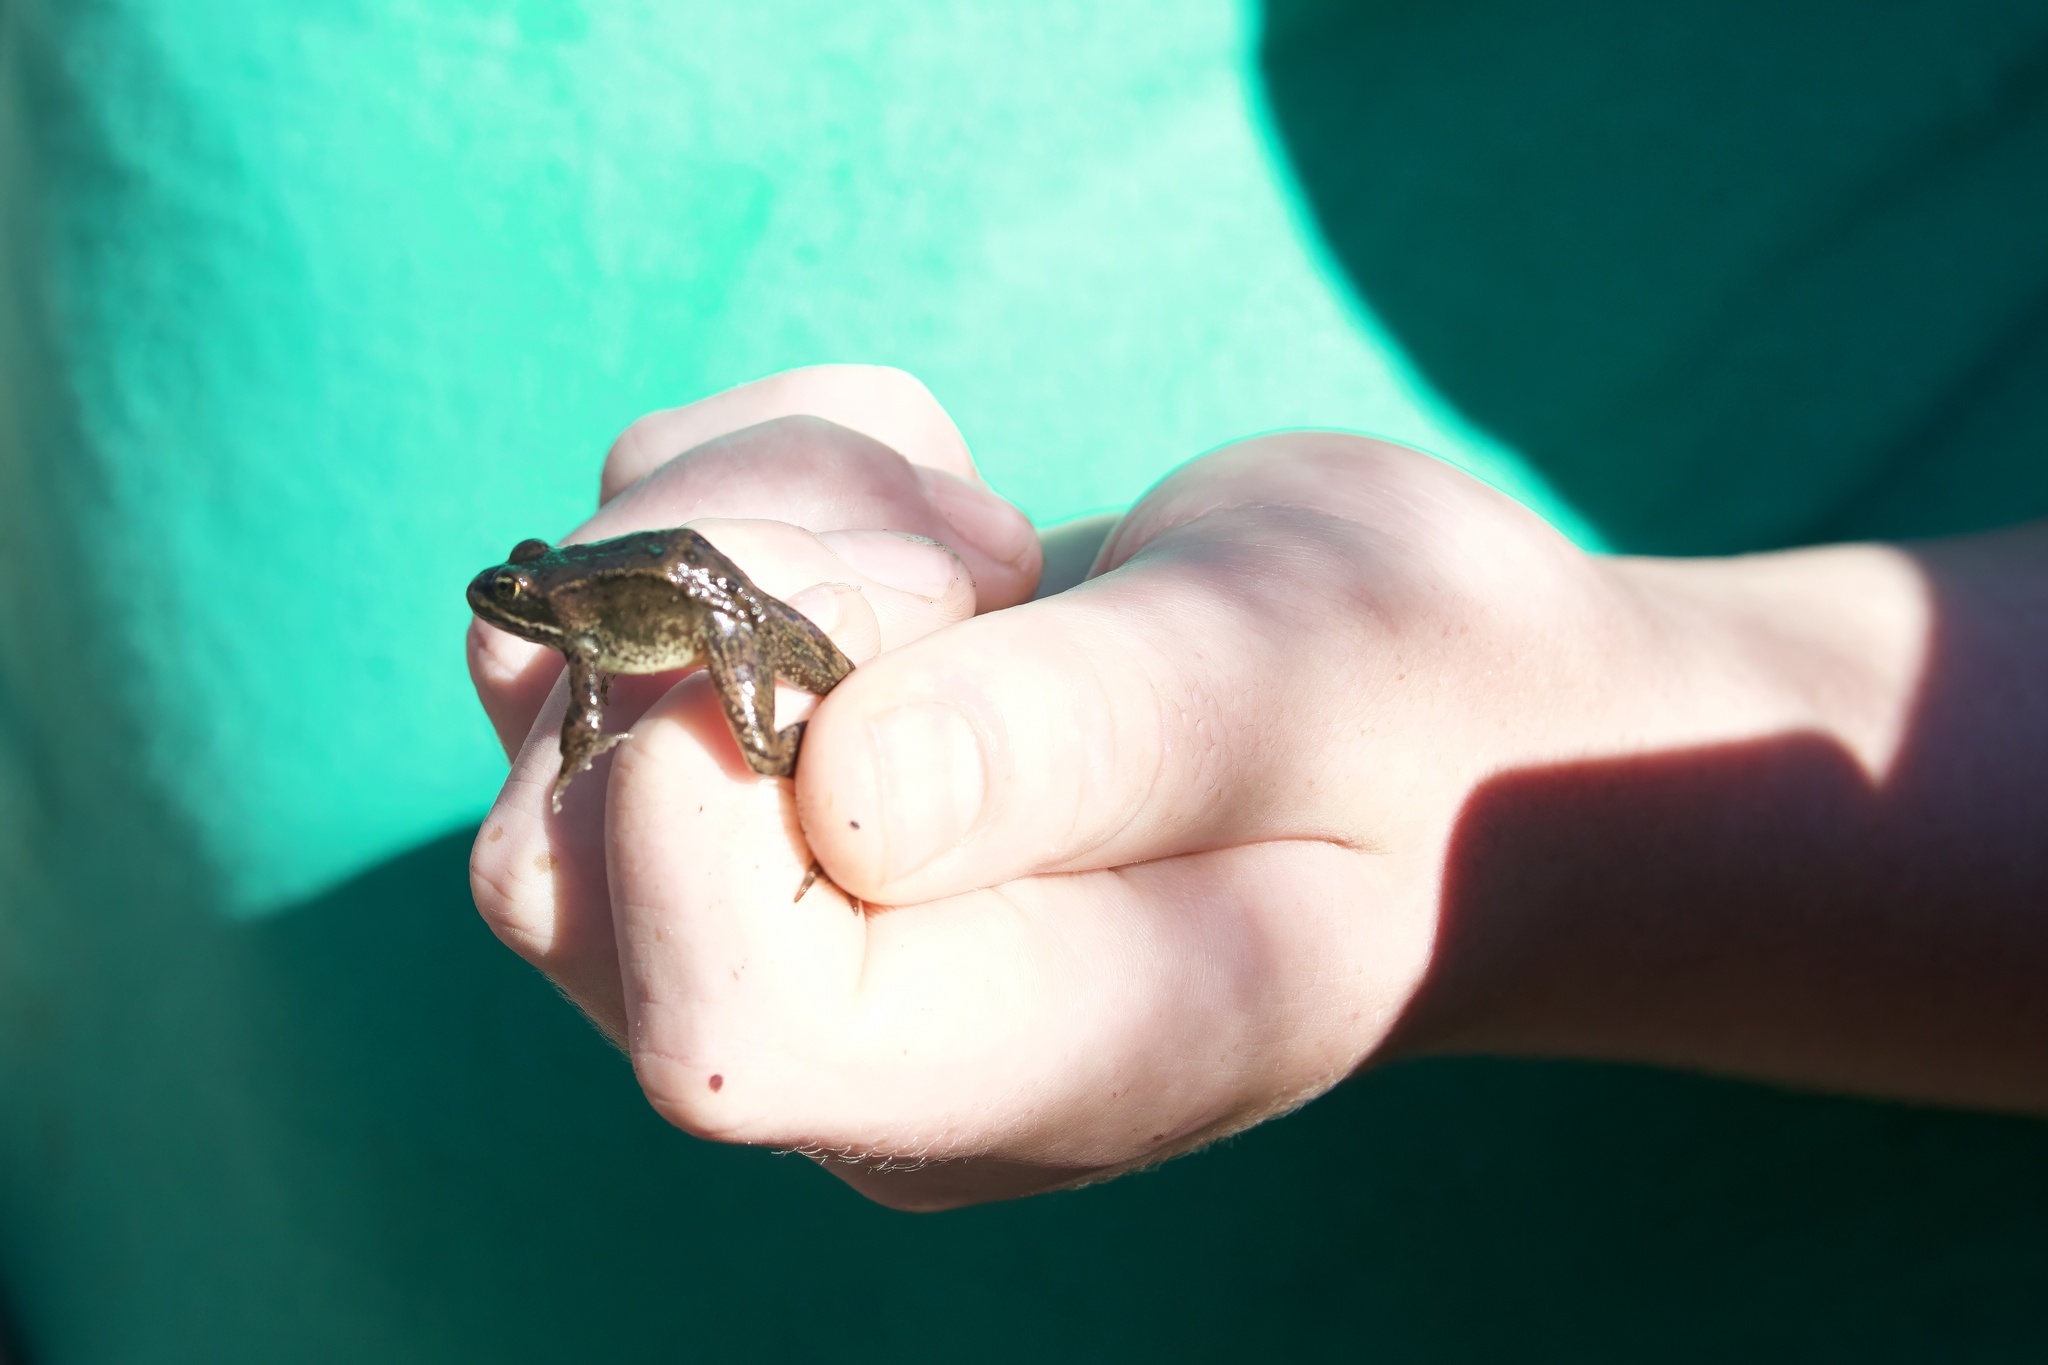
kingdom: Animalia
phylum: Chordata
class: Amphibia
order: Anura
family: Ranidae
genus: Rana
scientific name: Rana luteiventris
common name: Columbia spotted frog
